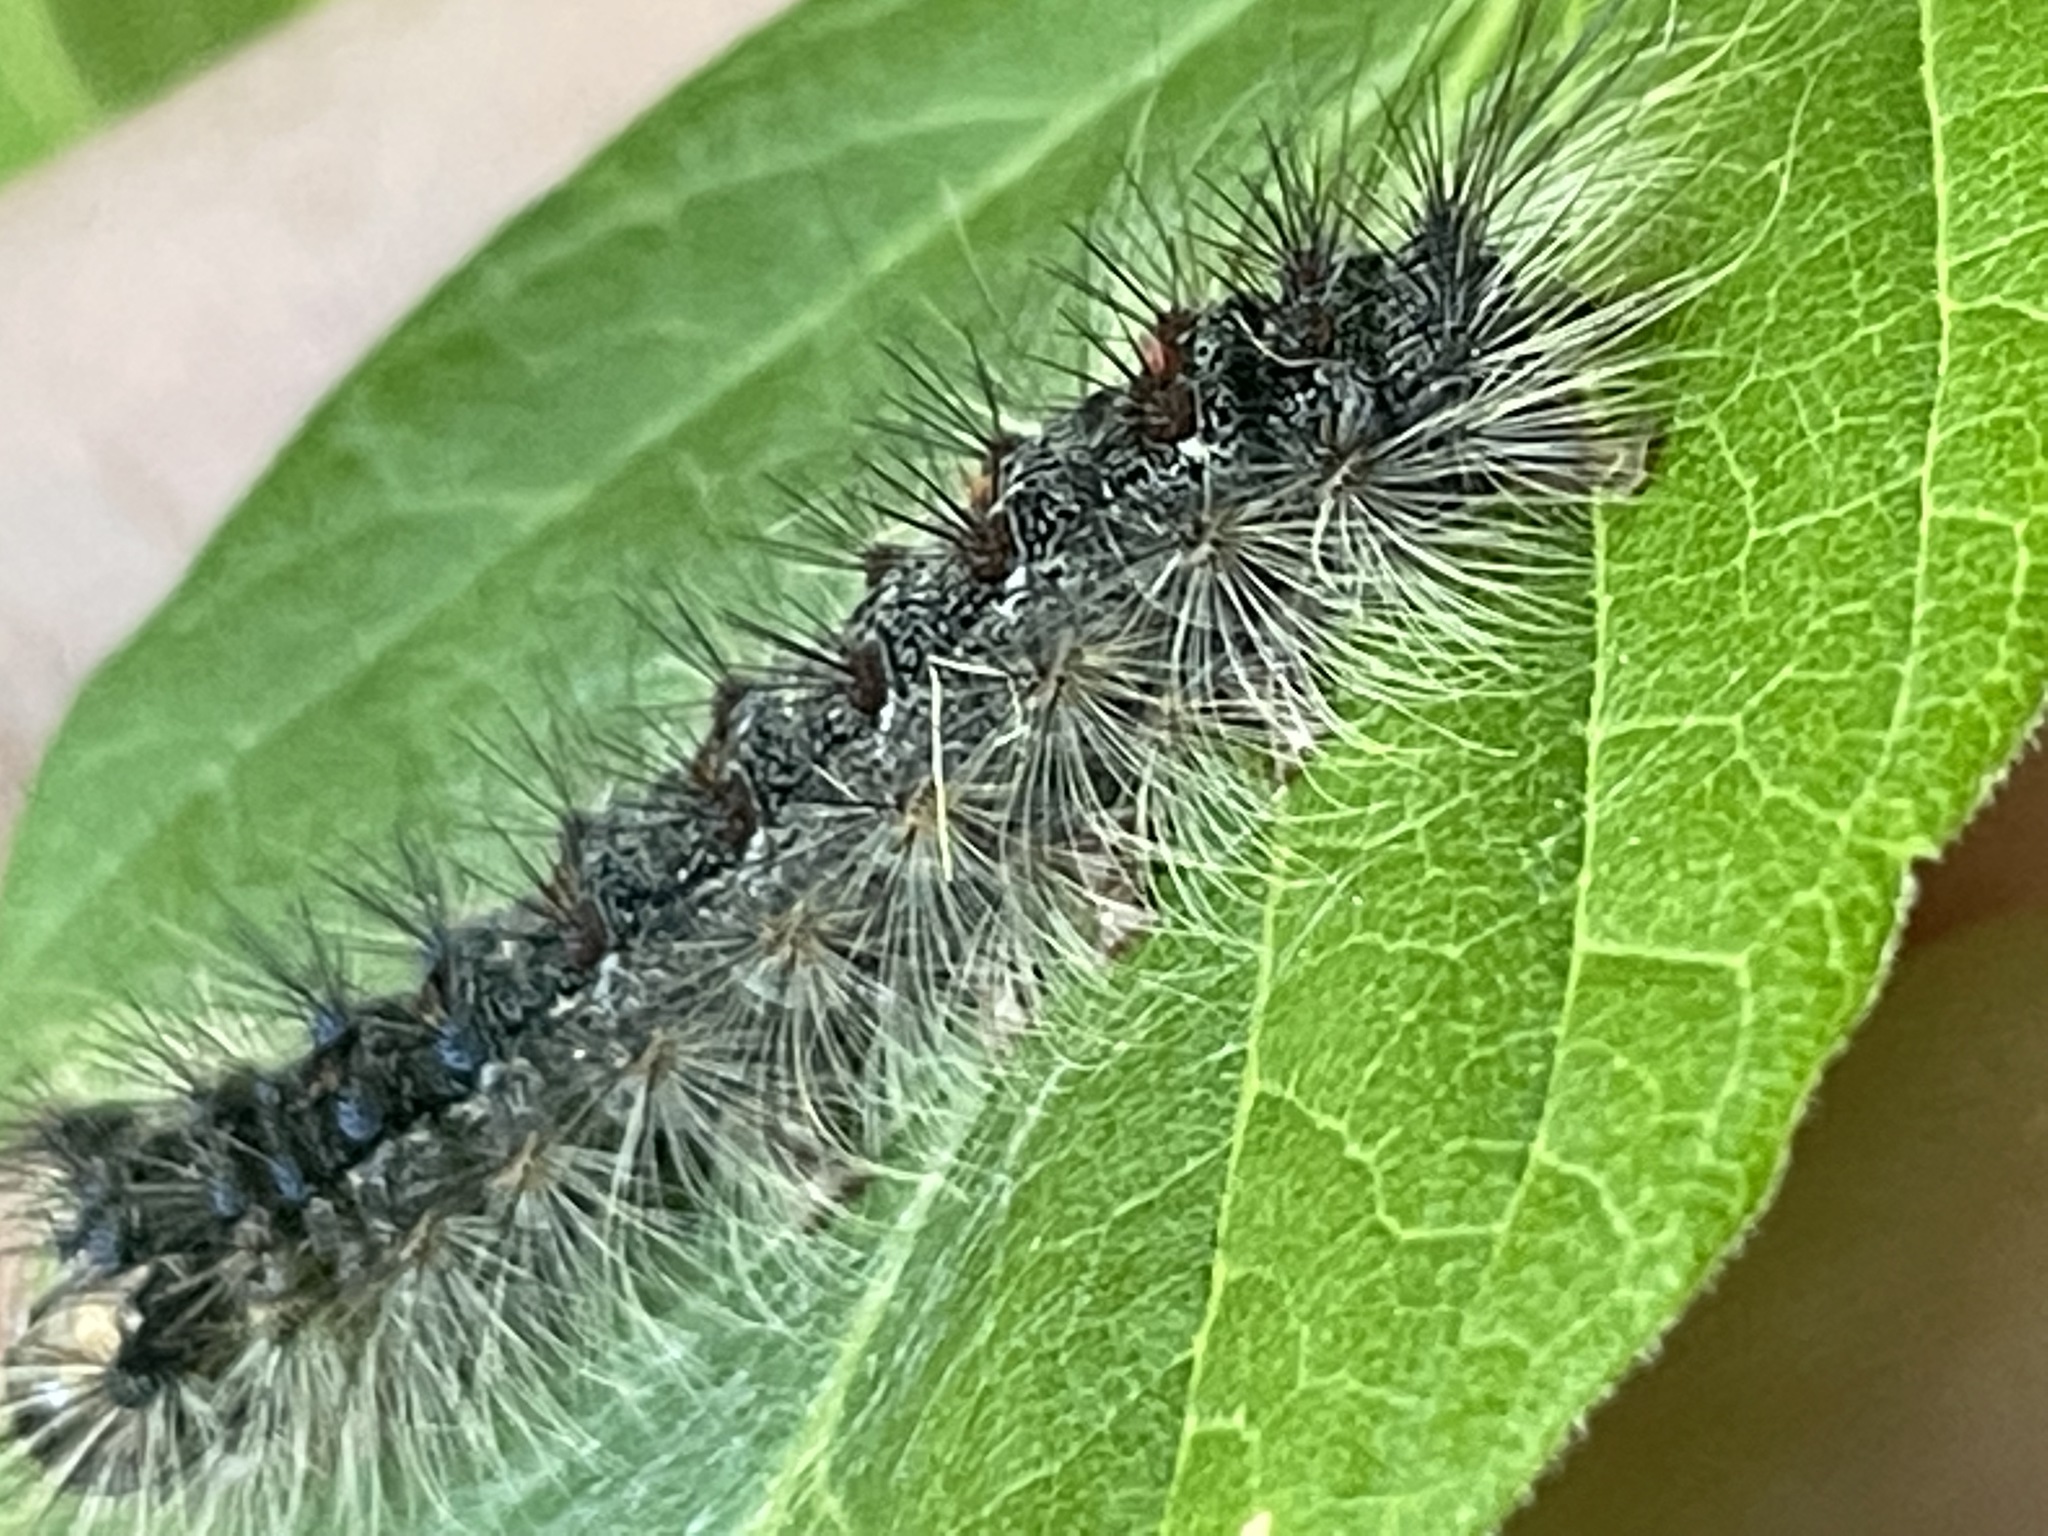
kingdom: Animalia
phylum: Arthropoda
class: Insecta
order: Lepidoptera
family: Erebidae
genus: Lymantria
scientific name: Lymantria dispar
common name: Gypsy moth
